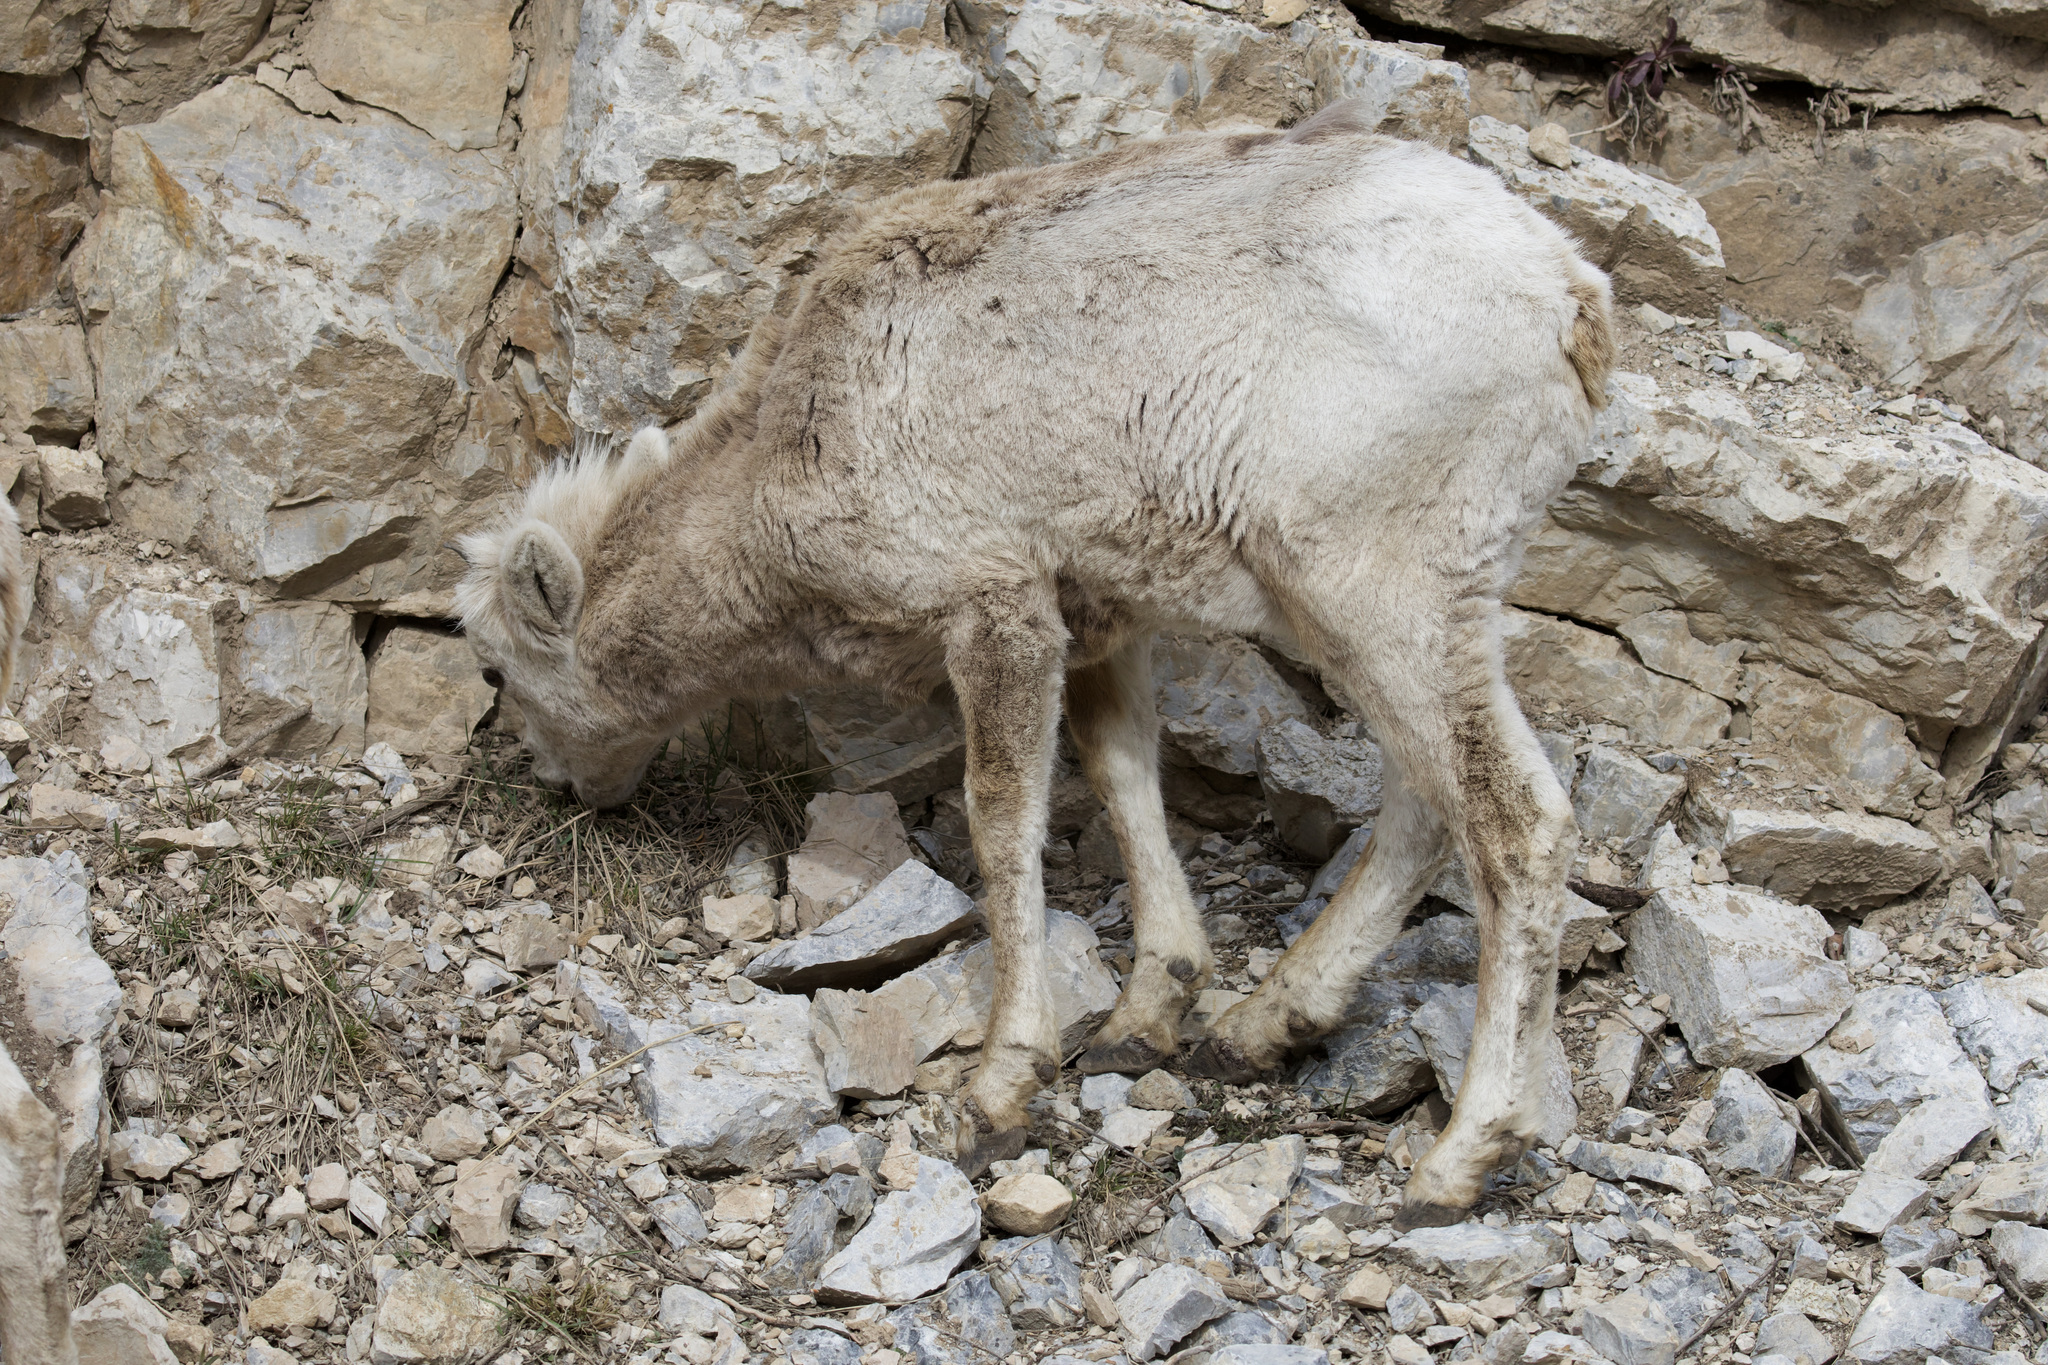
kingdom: Animalia
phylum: Chordata
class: Mammalia
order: Artiodactyla
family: Bovidae
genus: Ovis
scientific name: Ovis canadensis
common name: Bighorn sheep
